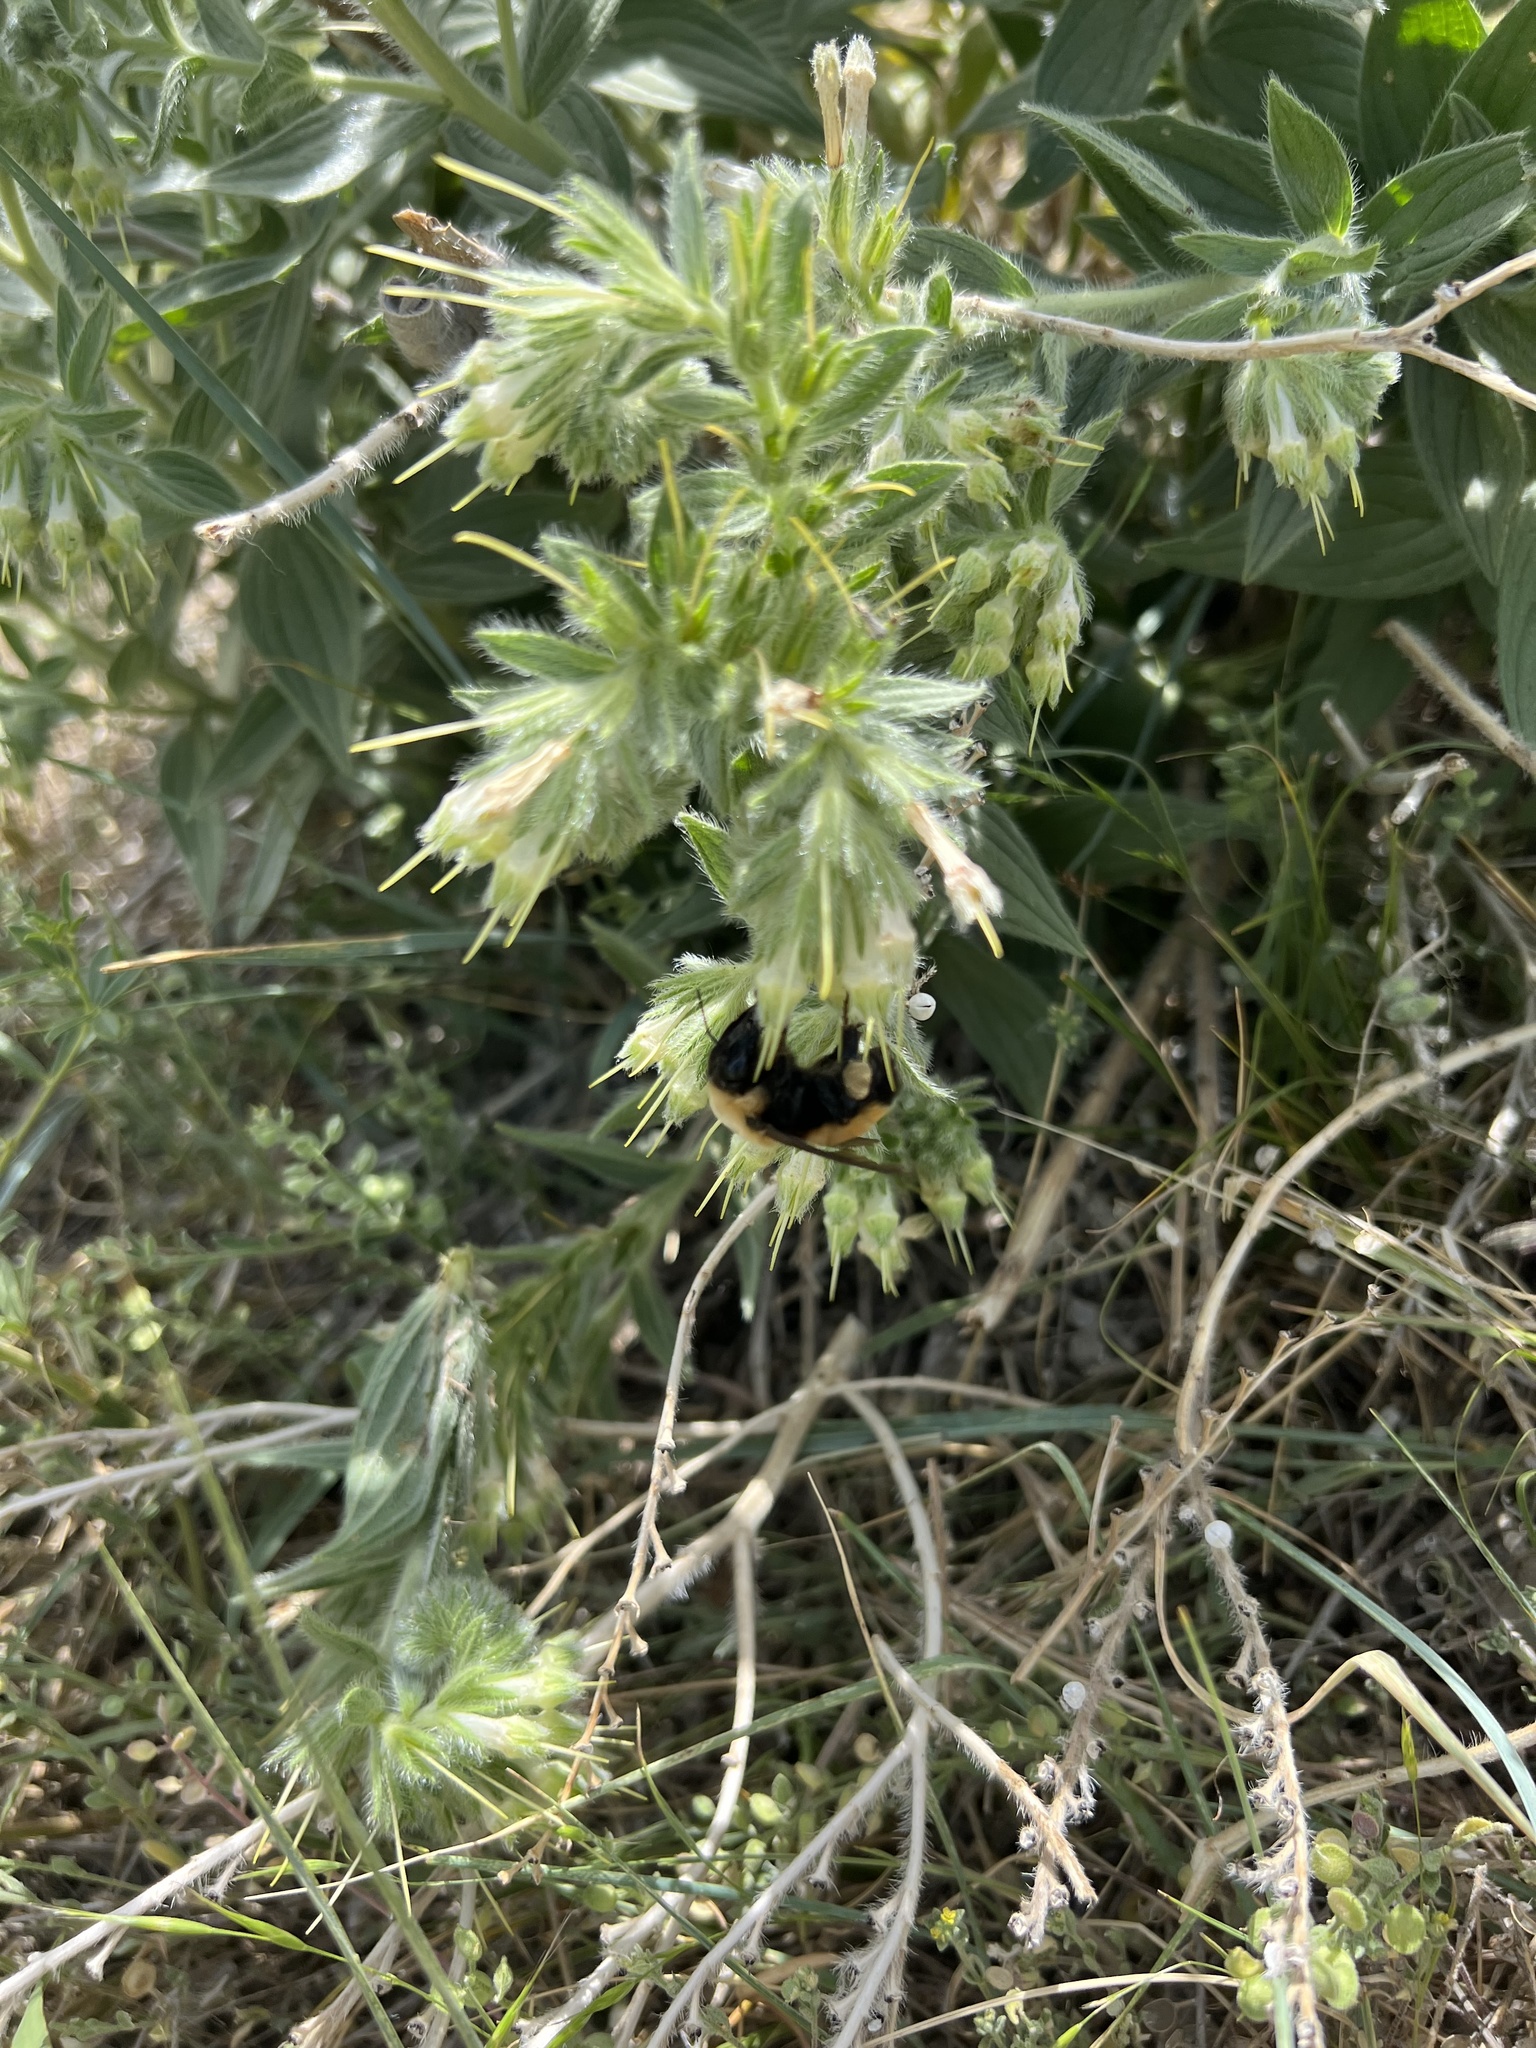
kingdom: Animalia
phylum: Arthropoda
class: Insecta
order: Hymenoptera
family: Apidae
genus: Bombus
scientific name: Bombus nevadensis
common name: Nevada bumble bee
